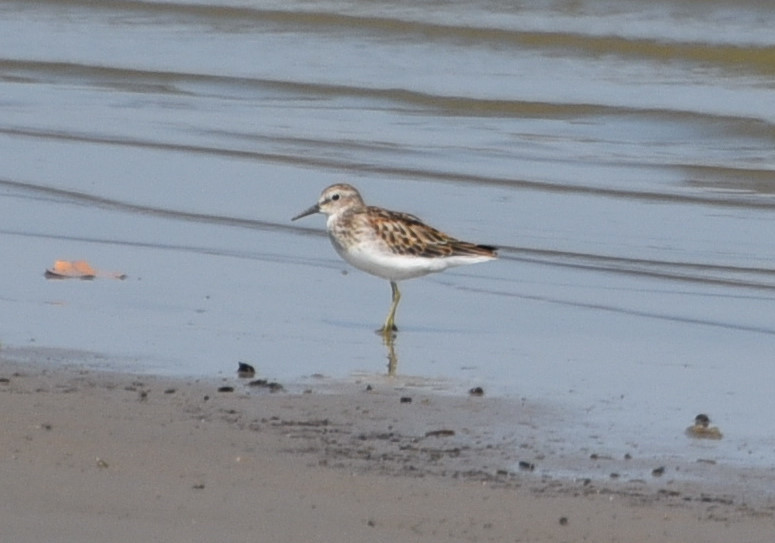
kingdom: Animalia
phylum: Chordata
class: Aves
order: Charadriiformes
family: Scolopacidae
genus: Calidris
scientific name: Calidris minutilla
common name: Least sandpiper
